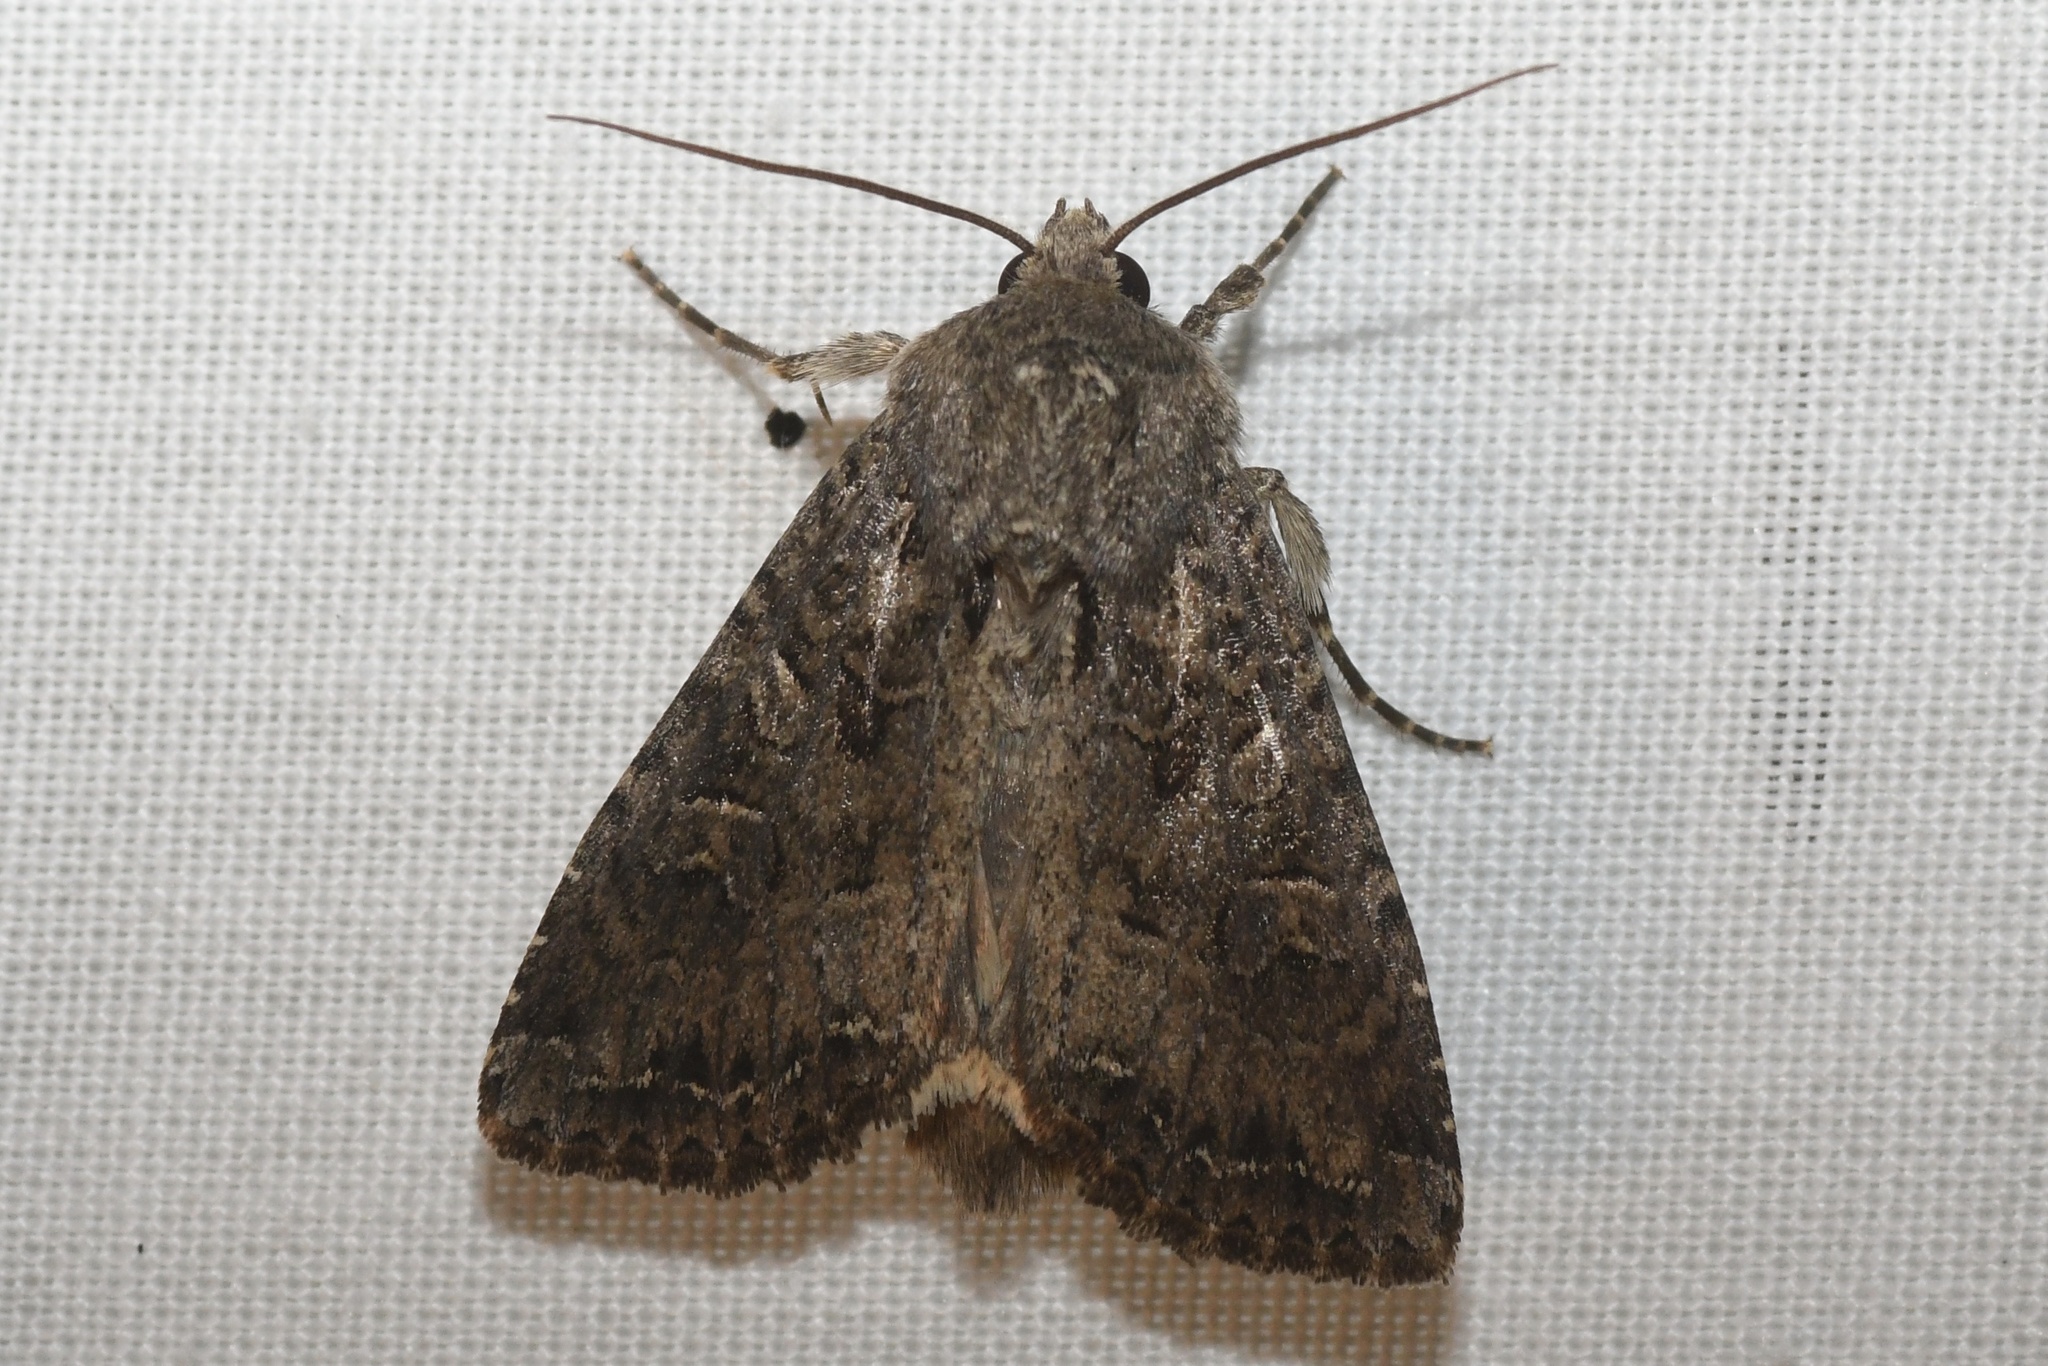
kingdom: Animalia
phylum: Arthropoda
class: Insecta
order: Lepidoptera
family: Noctuidae
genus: Apamea
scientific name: Apamea devastator
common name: Glassy cutworm
